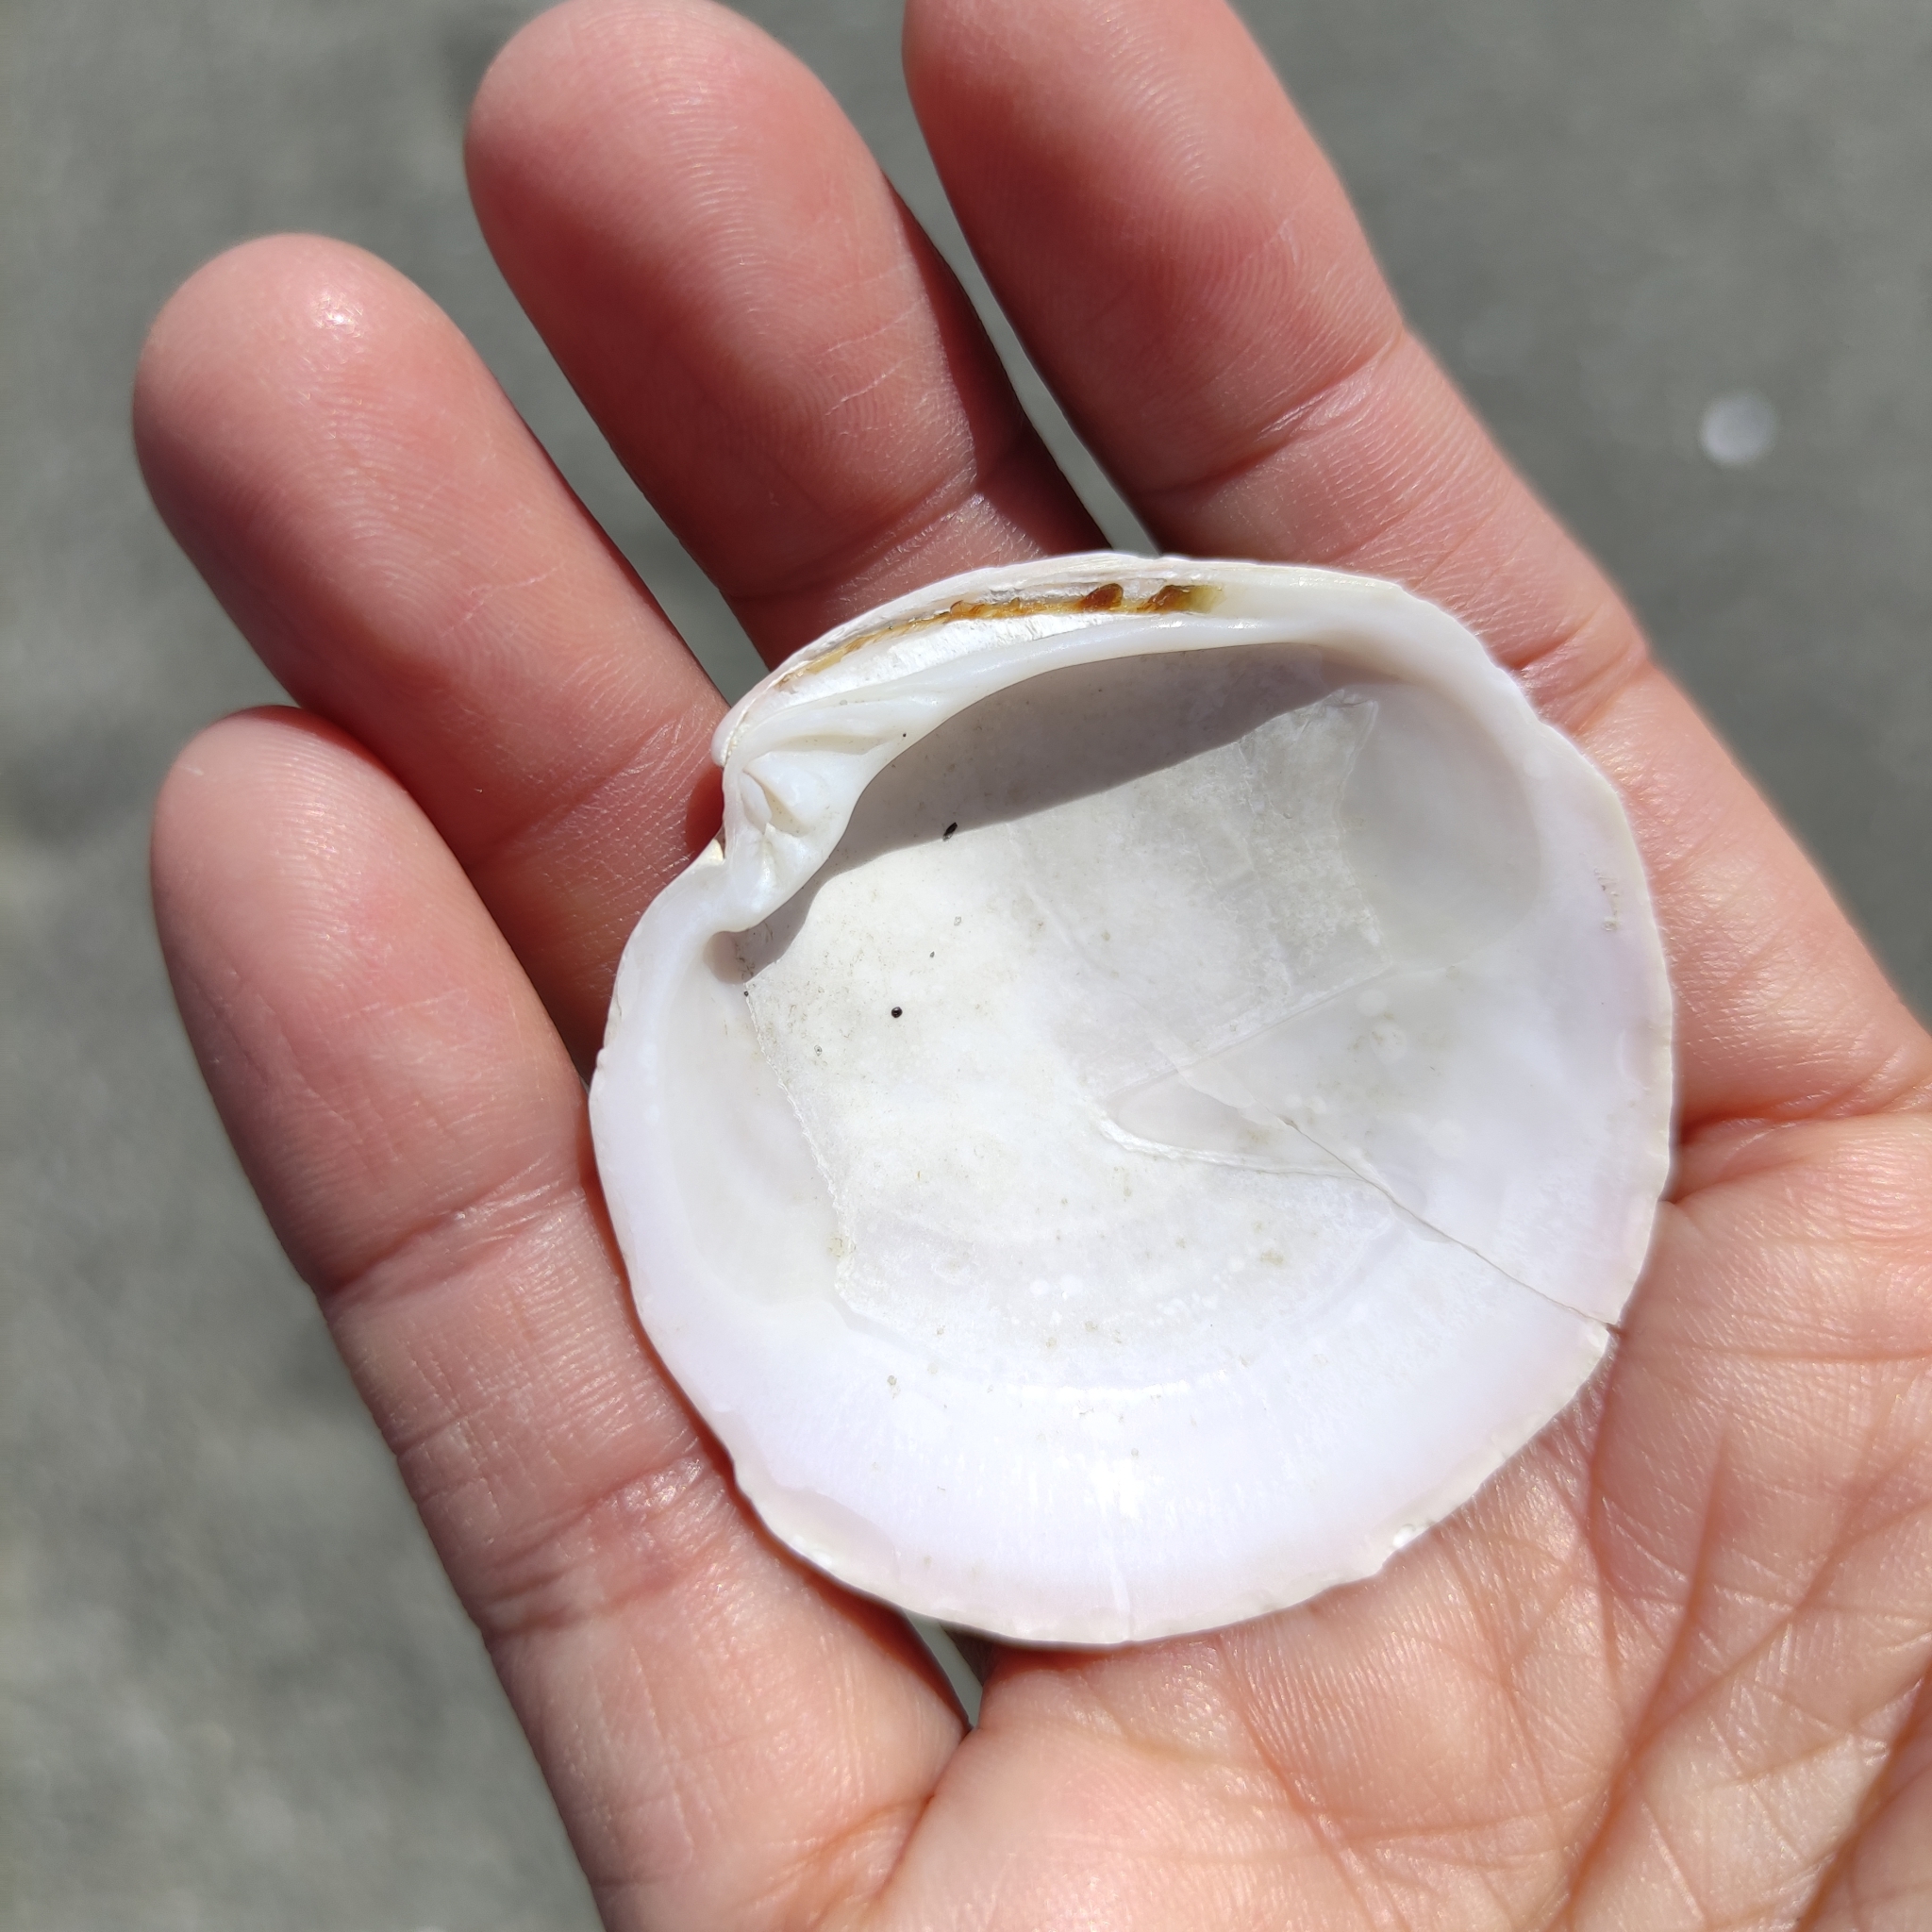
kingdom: Animalia
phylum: Mollusca
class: Bivalvia
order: Venerida
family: Veneridae
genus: Dosinia
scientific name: Dosinia anus
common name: Old-woman dosinia
